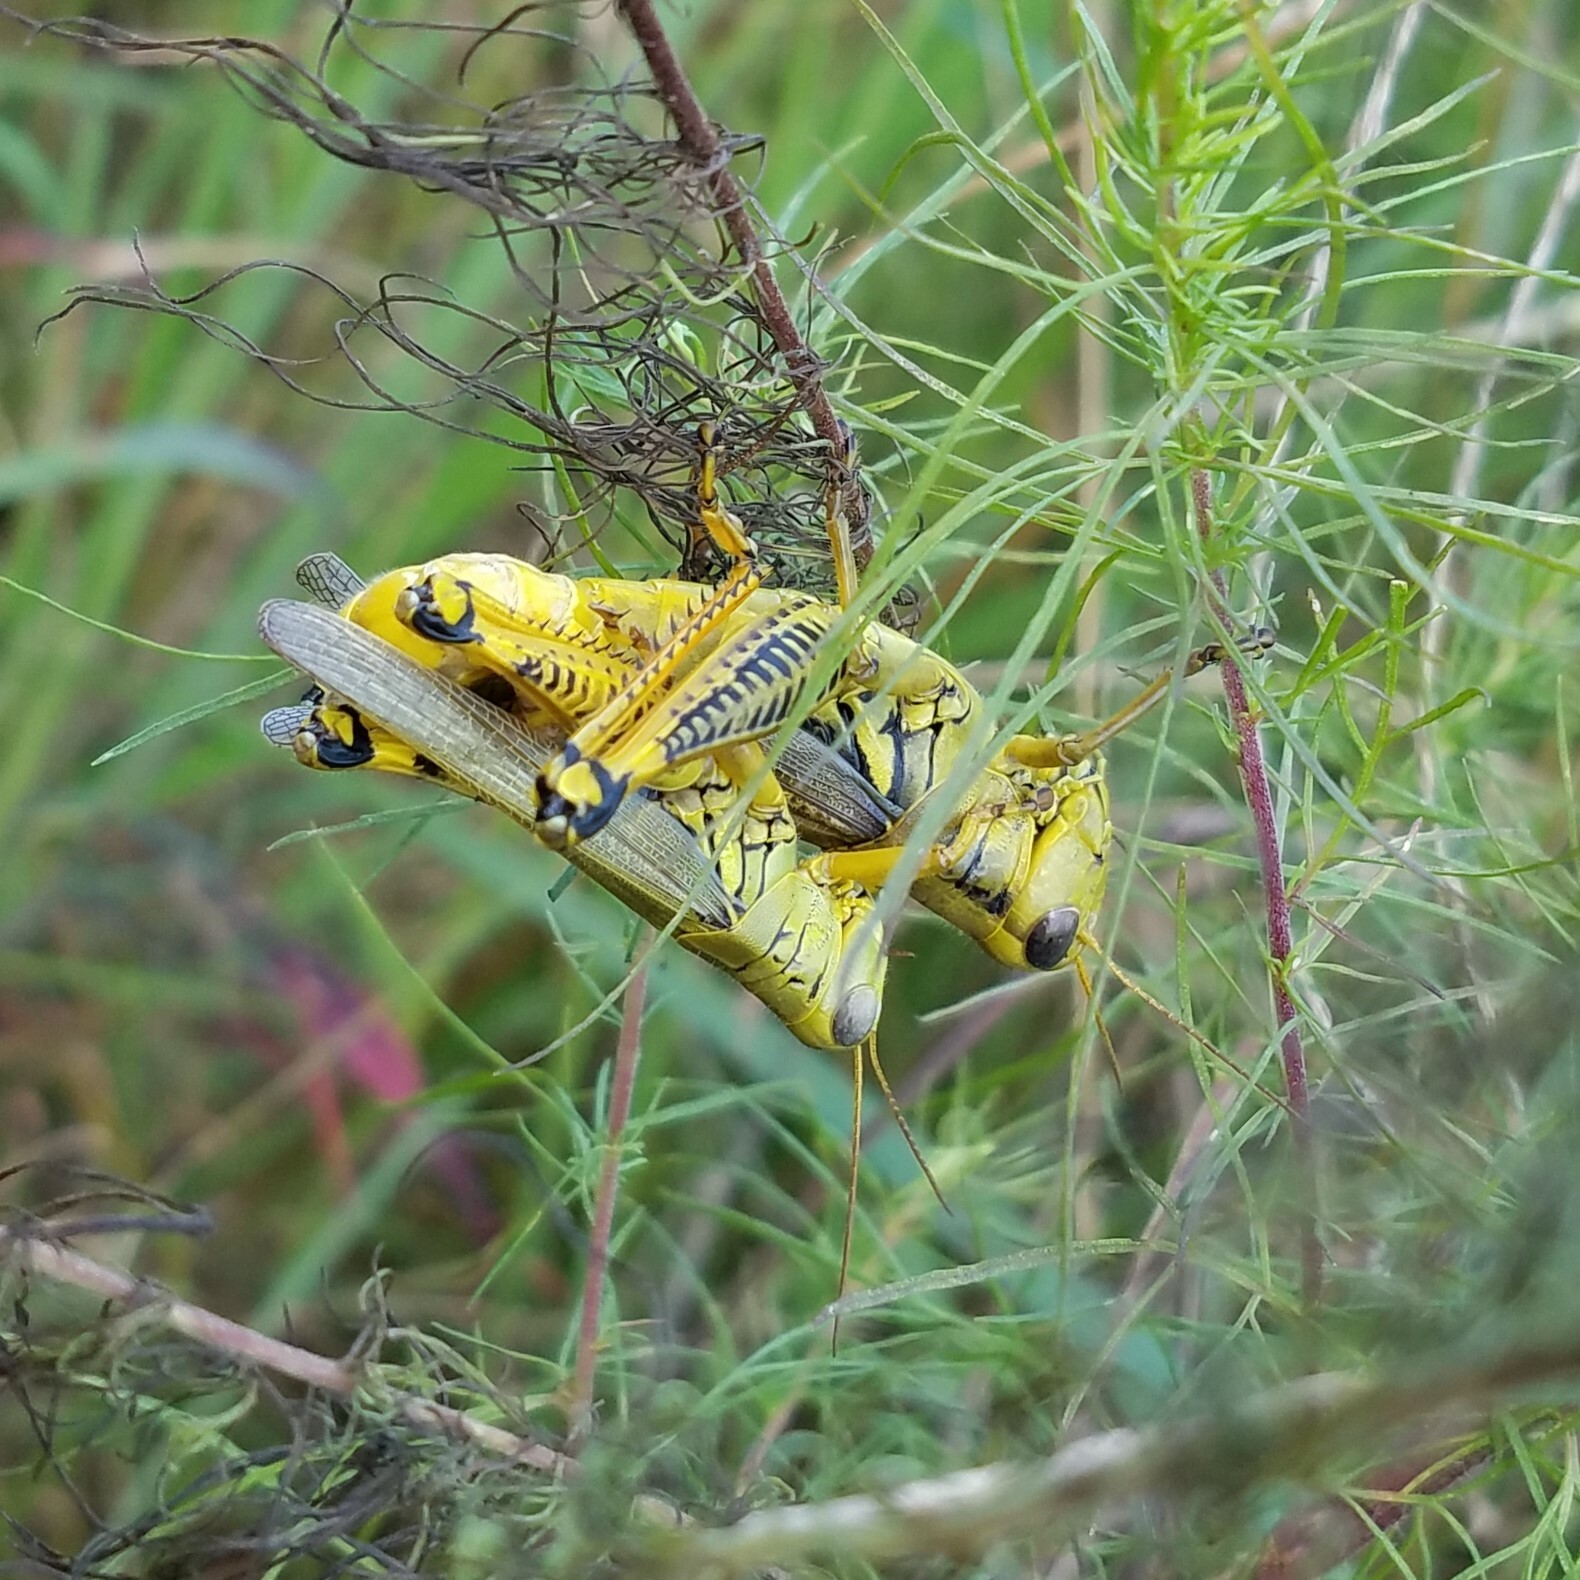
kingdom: Animalia
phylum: Arthropoda
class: Insecta
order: Orthoptera
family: Acrididae
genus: Melanoplus
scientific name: Melanoplus differentialis
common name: Differential grasshopper
